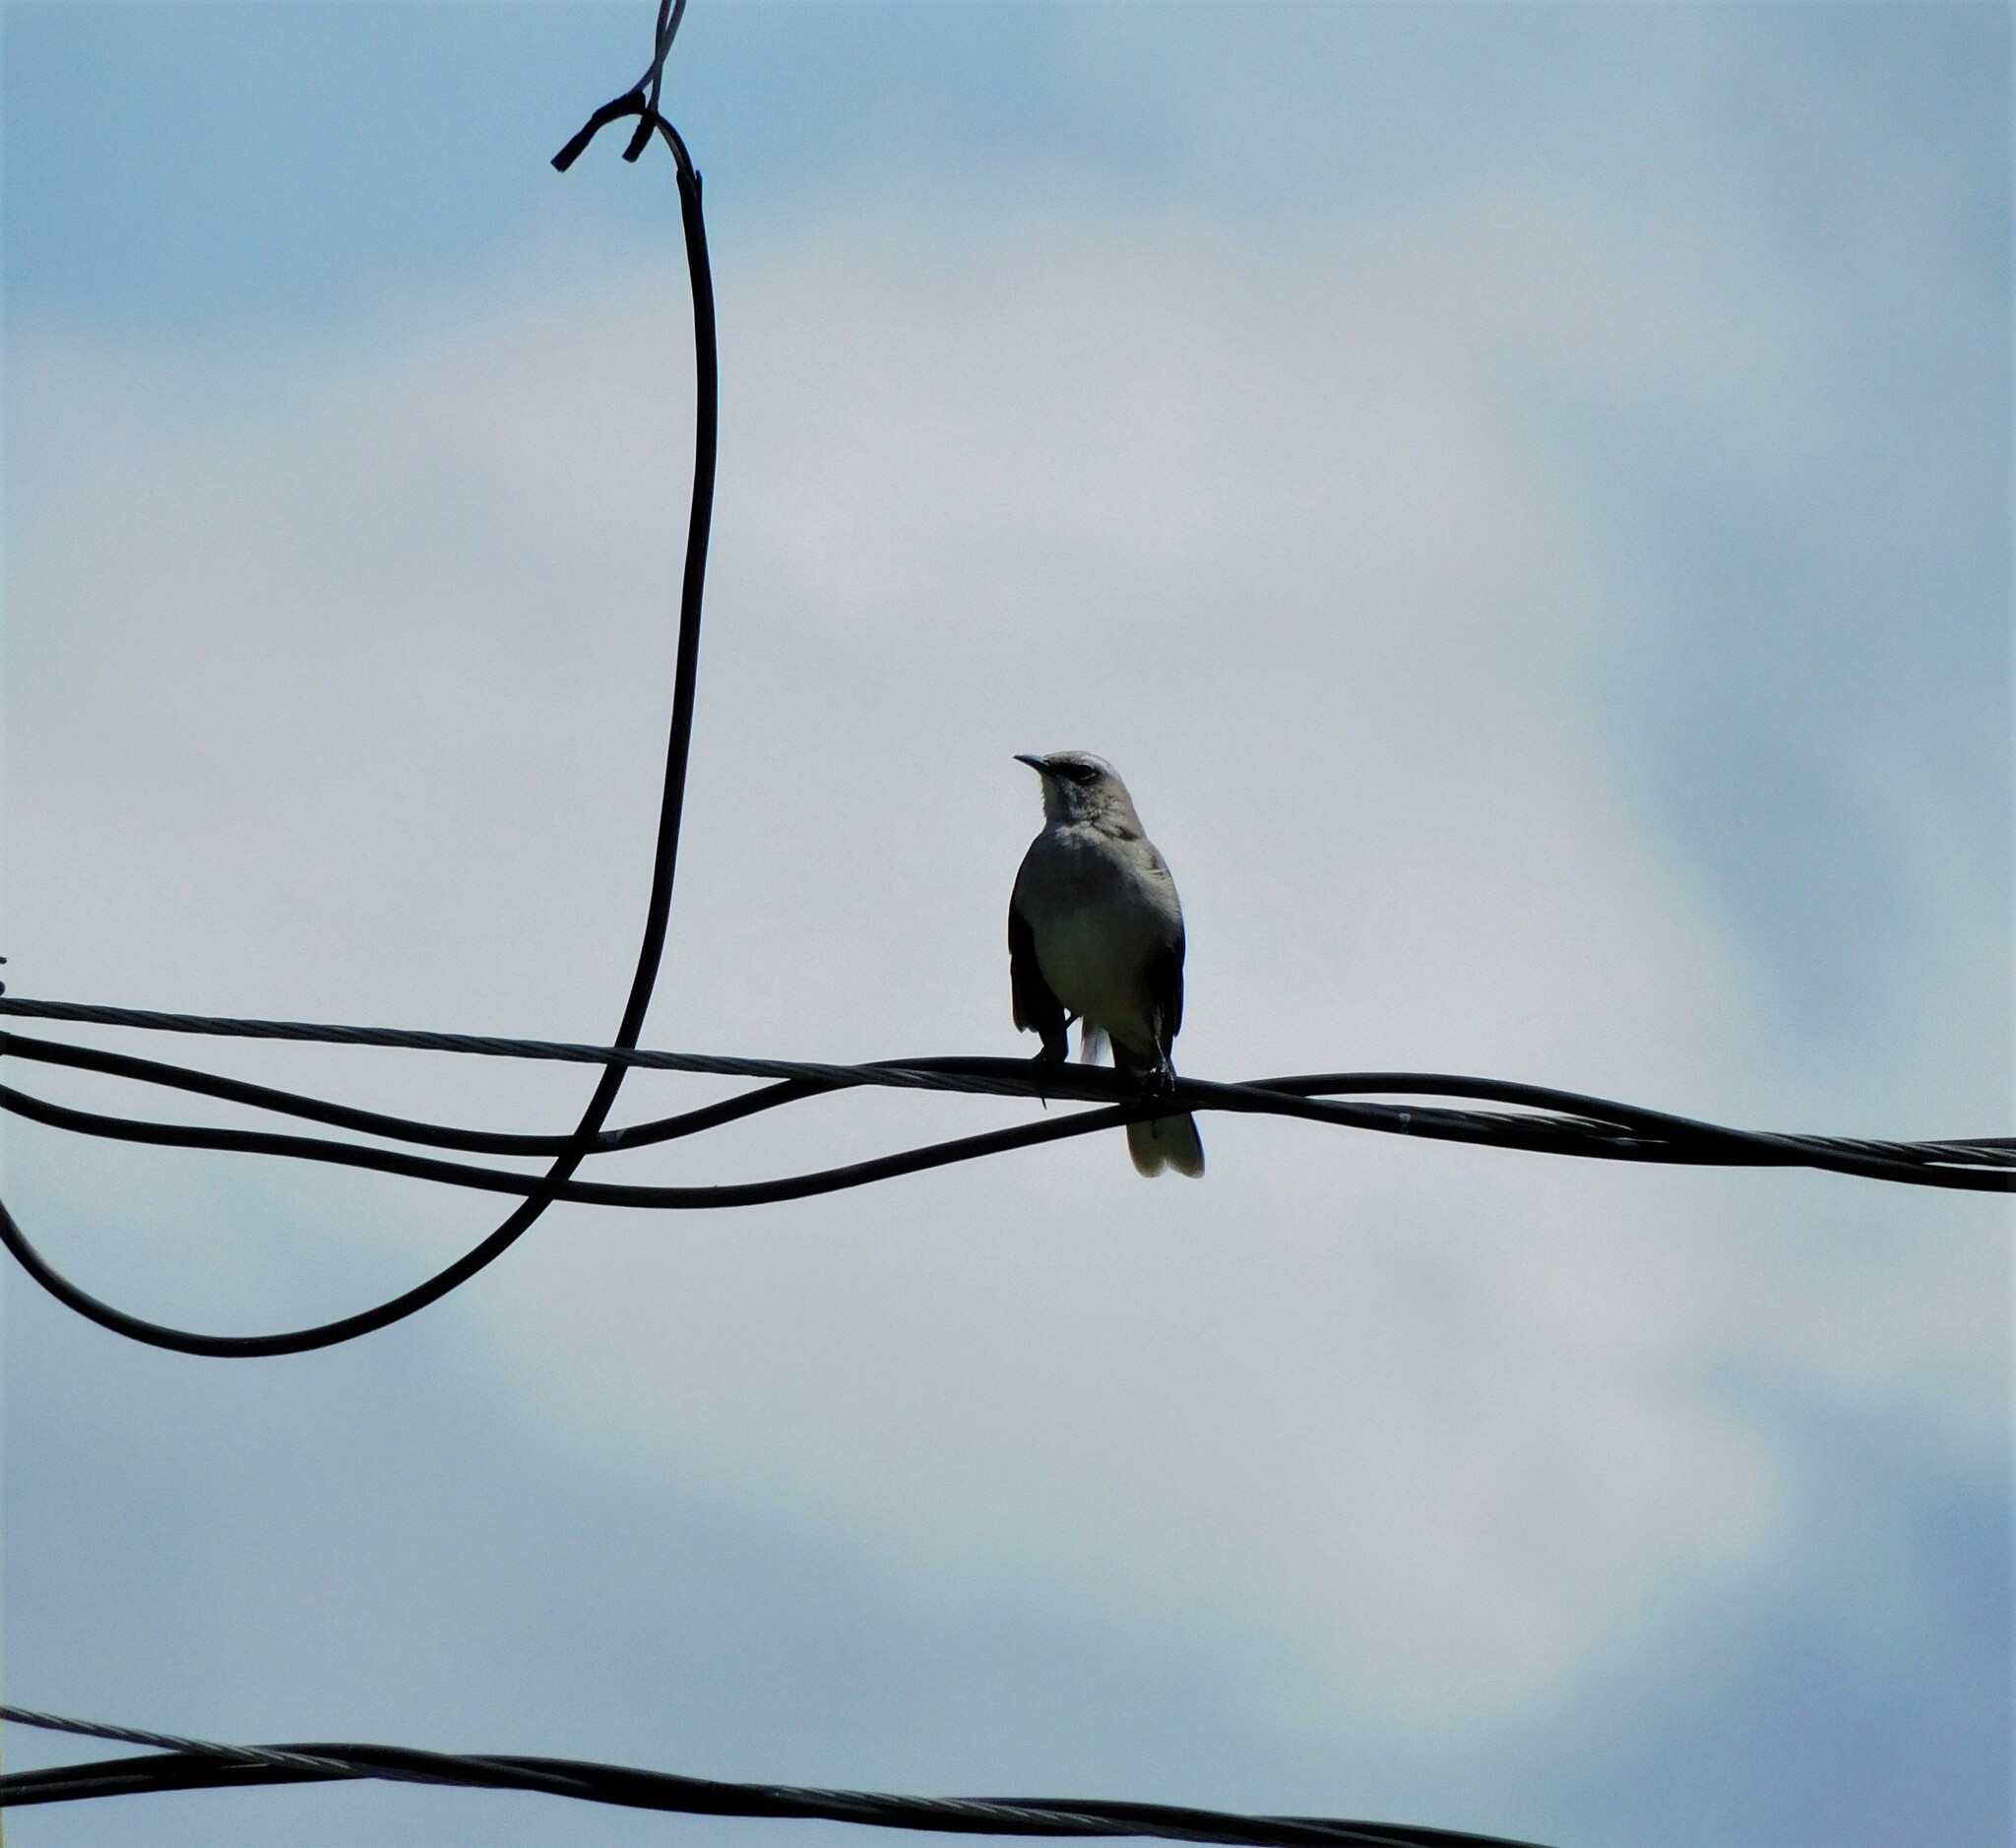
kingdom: Animalia
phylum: Chordata
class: Aves
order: Passeriformes
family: Mimidae
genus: Mimus
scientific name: Mimus gilvus
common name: Tropical mockingbird
